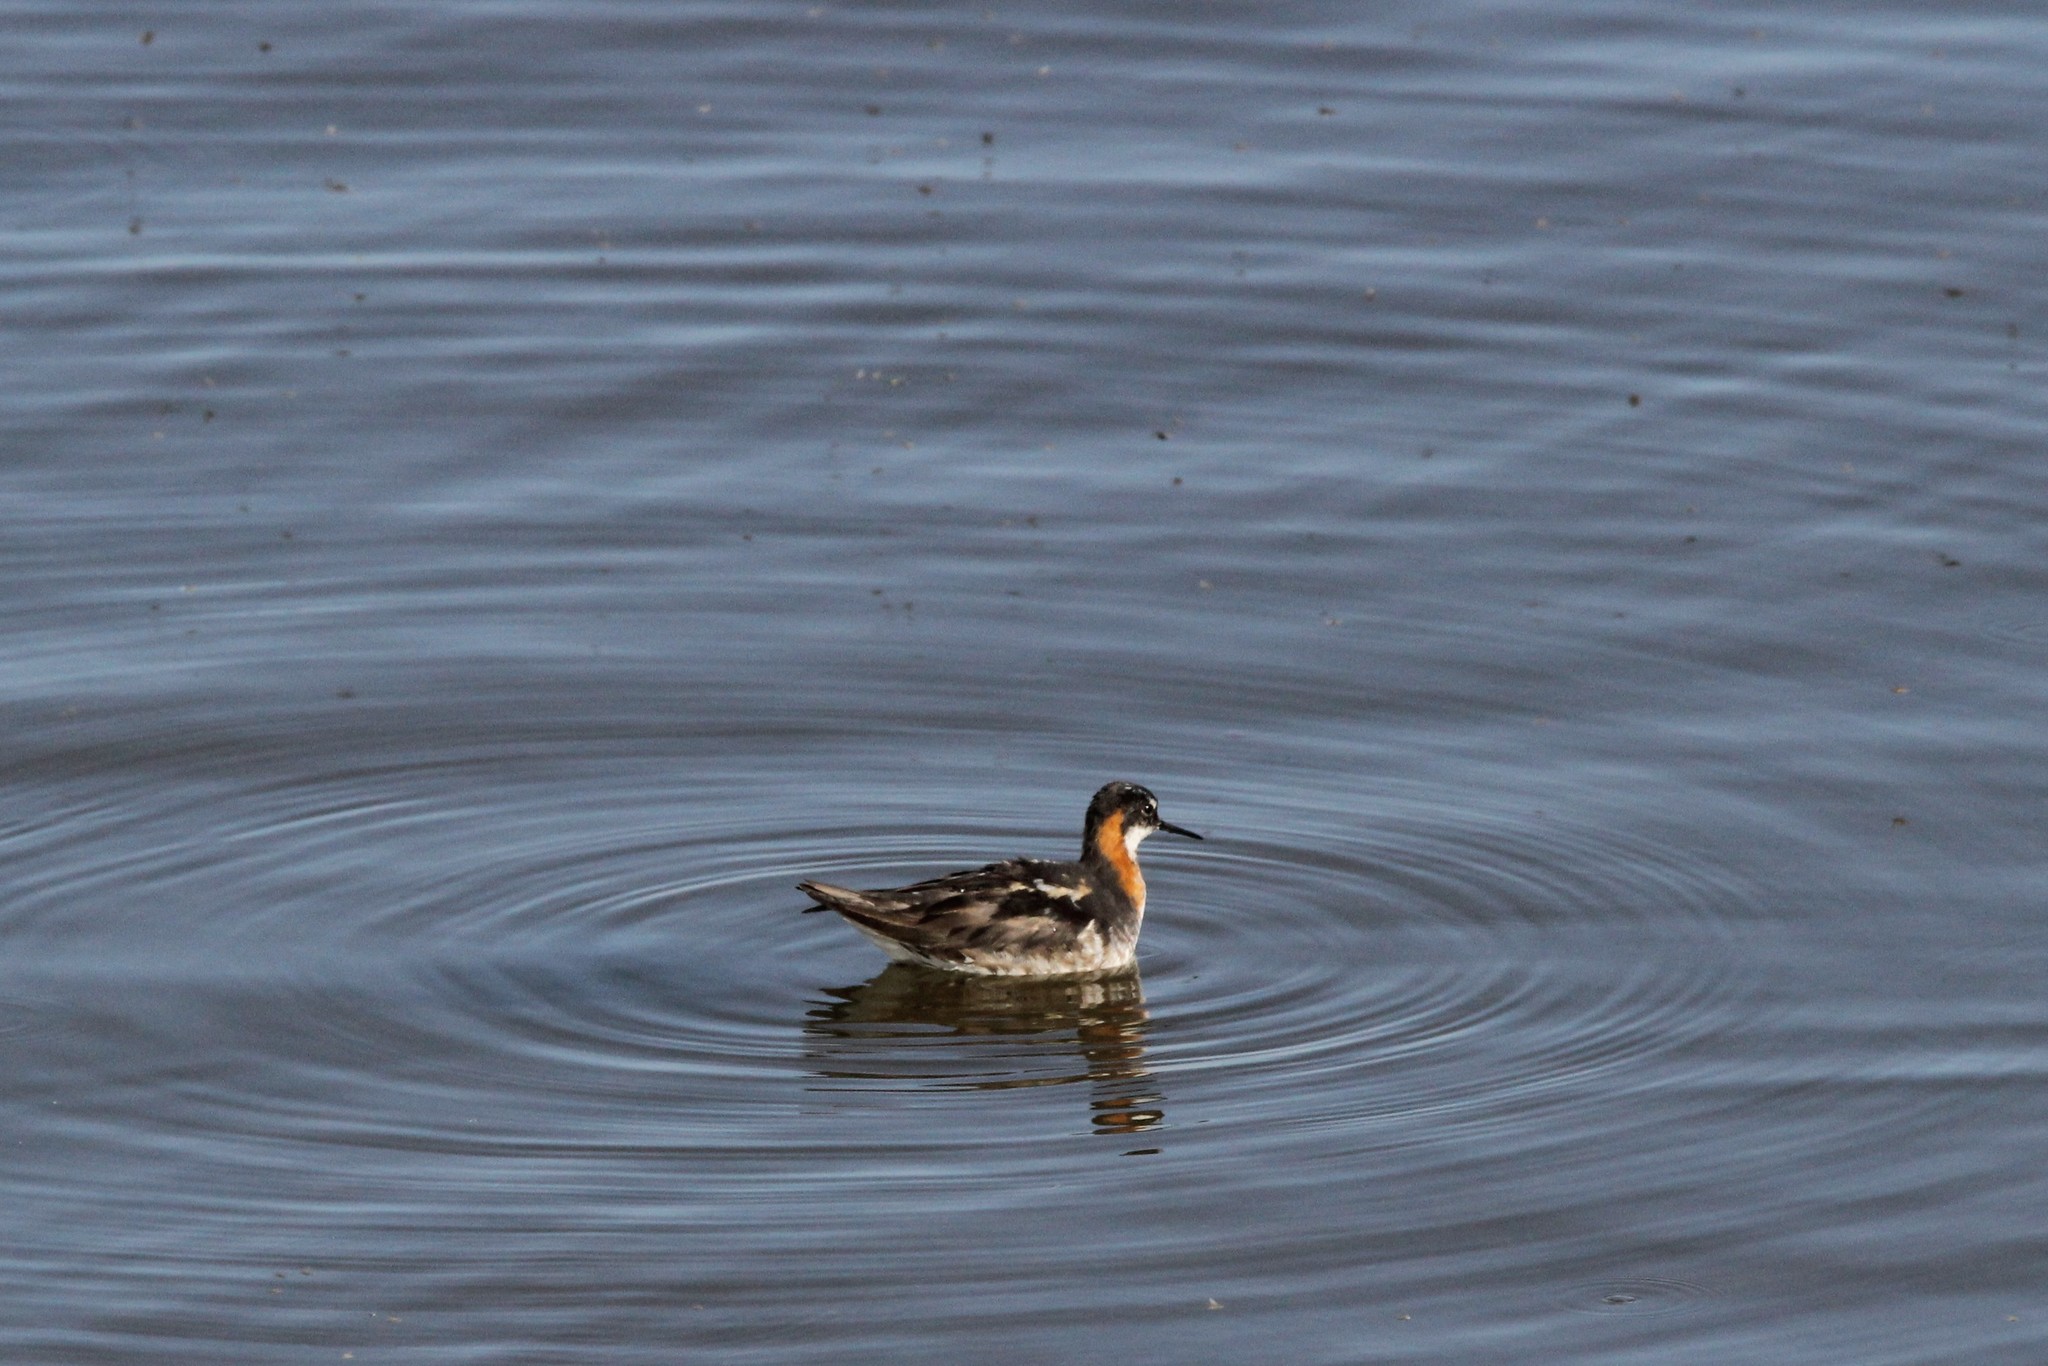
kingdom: Animalia
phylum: Chordata
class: Aves
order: Charadriiformes
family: Scolopacidae
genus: Phalaropus
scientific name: Phalaropus lobatus
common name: Red-necked phalarope
